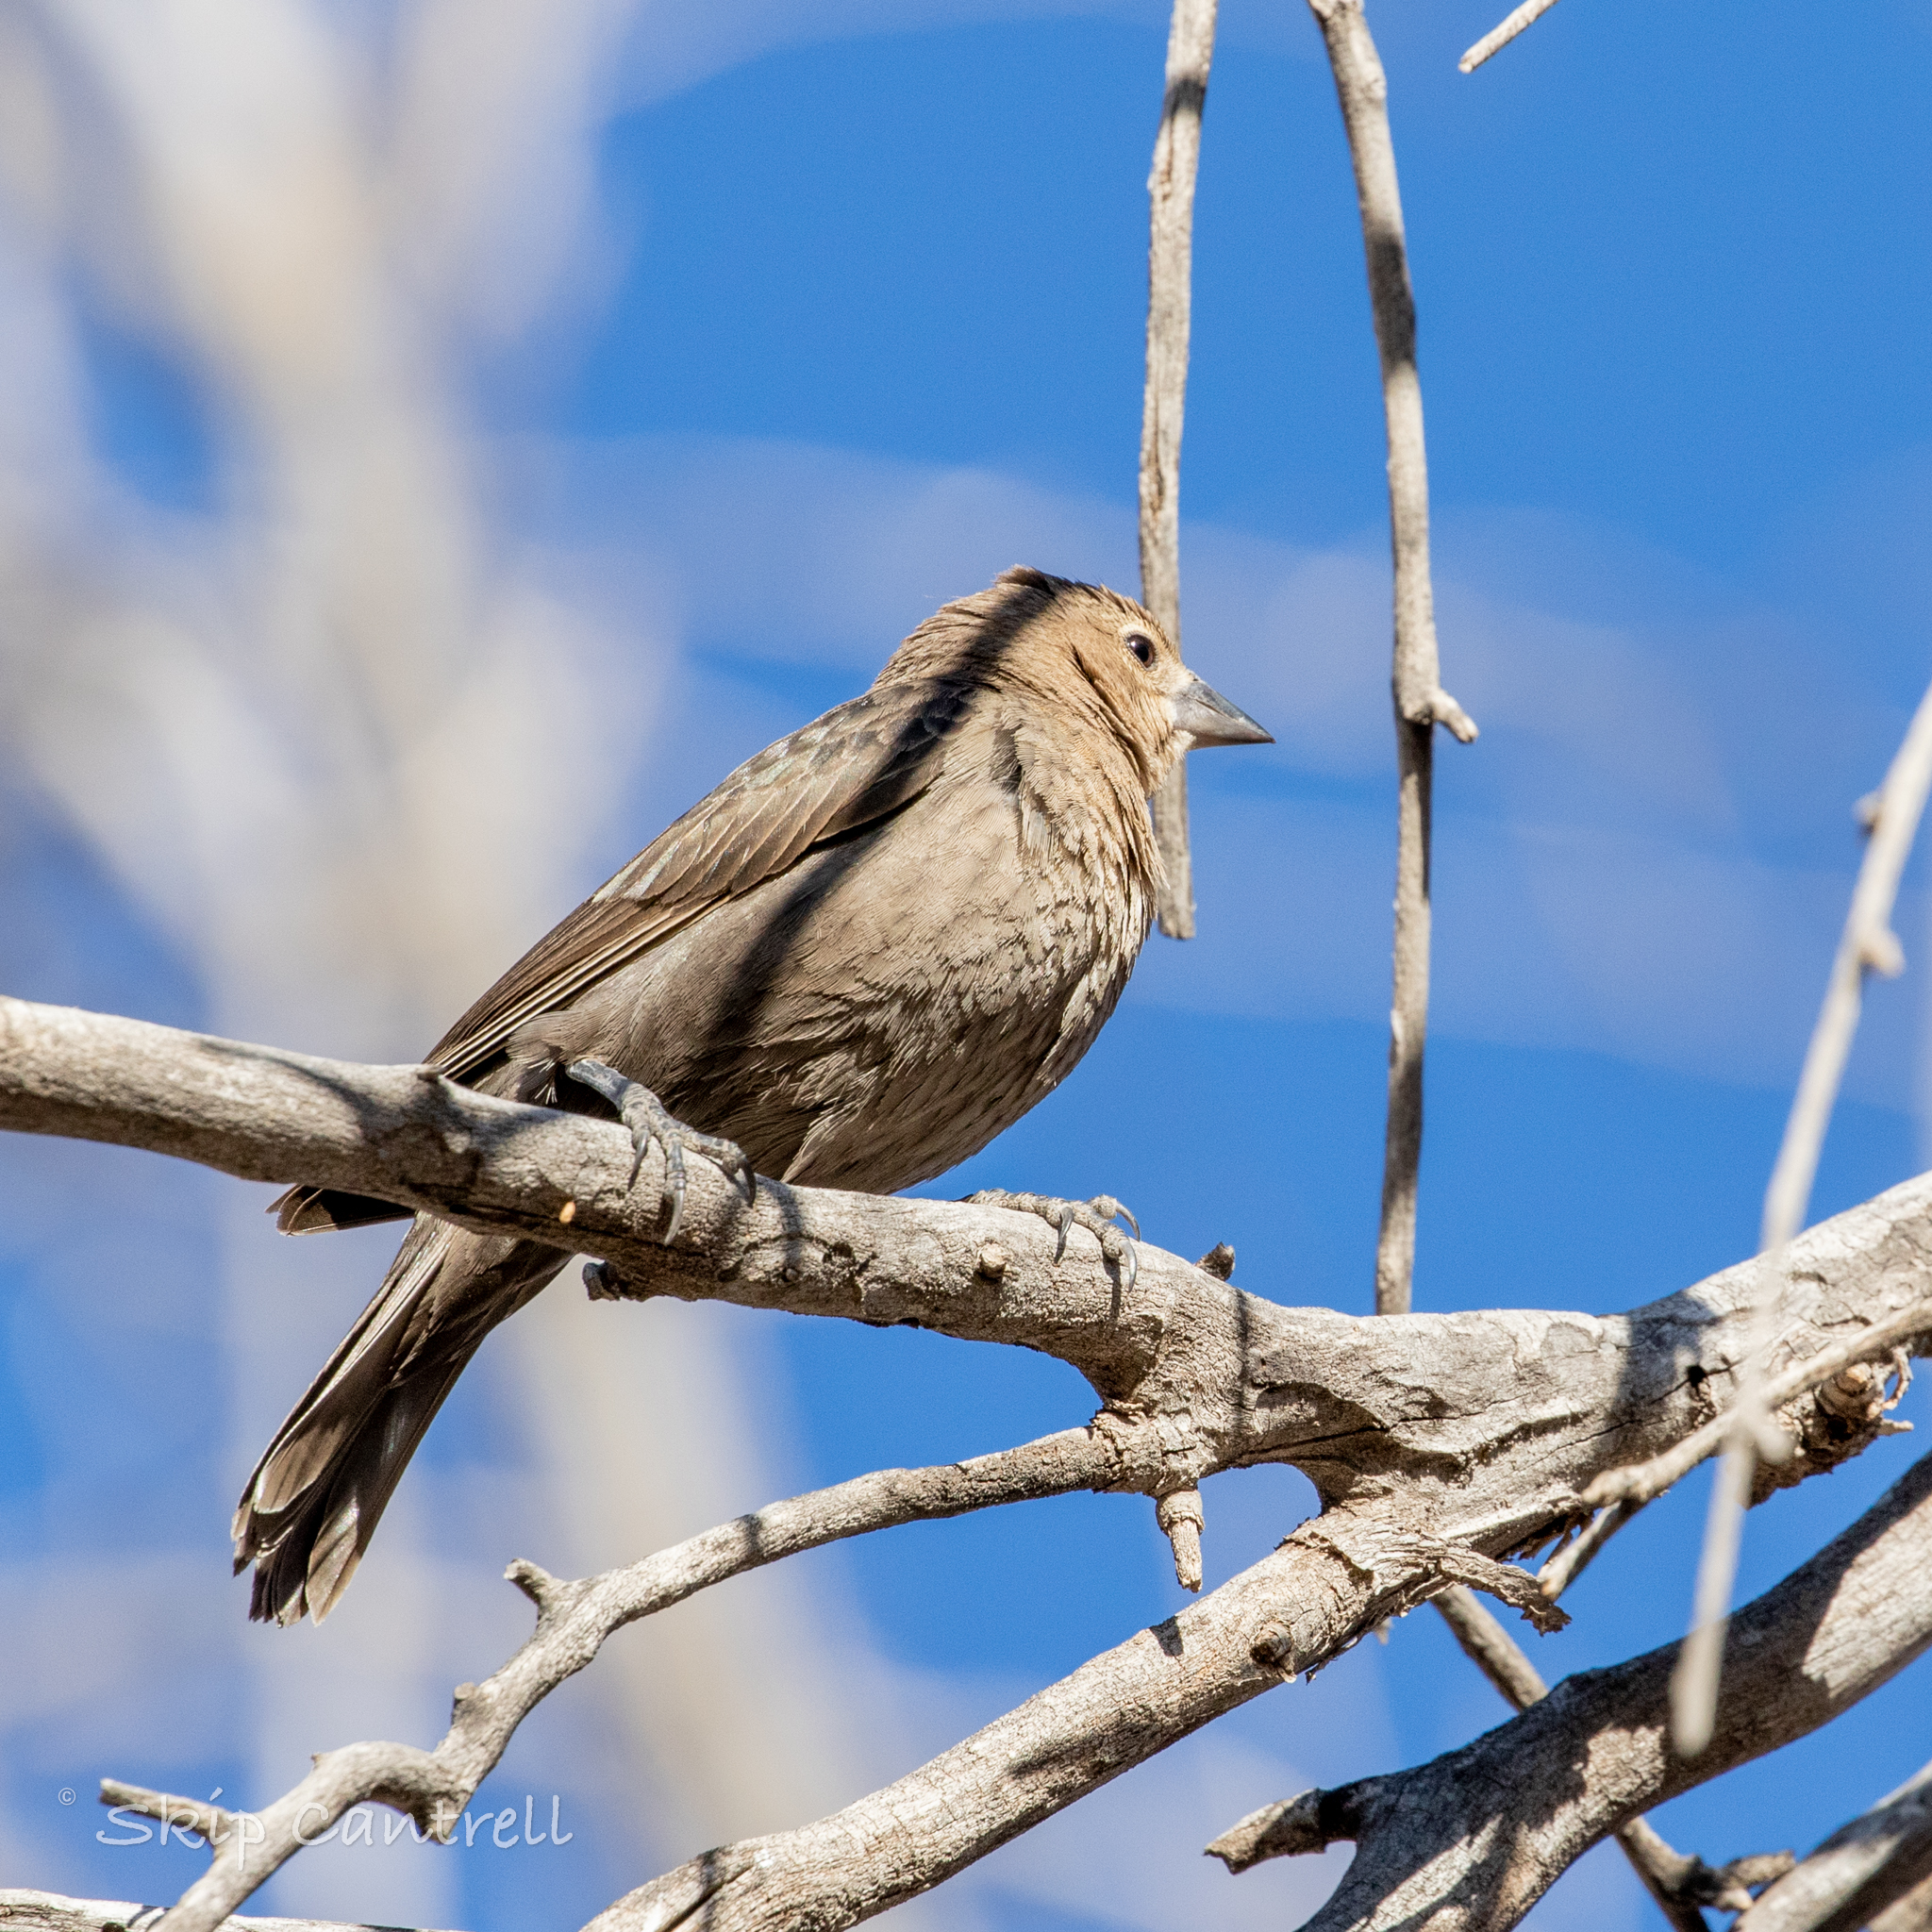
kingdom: Animalia
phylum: Chordata
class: Aves
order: Passeriformes
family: Icteridae
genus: Molothrus
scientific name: Molothrus ater
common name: Brown-headed cowbird
